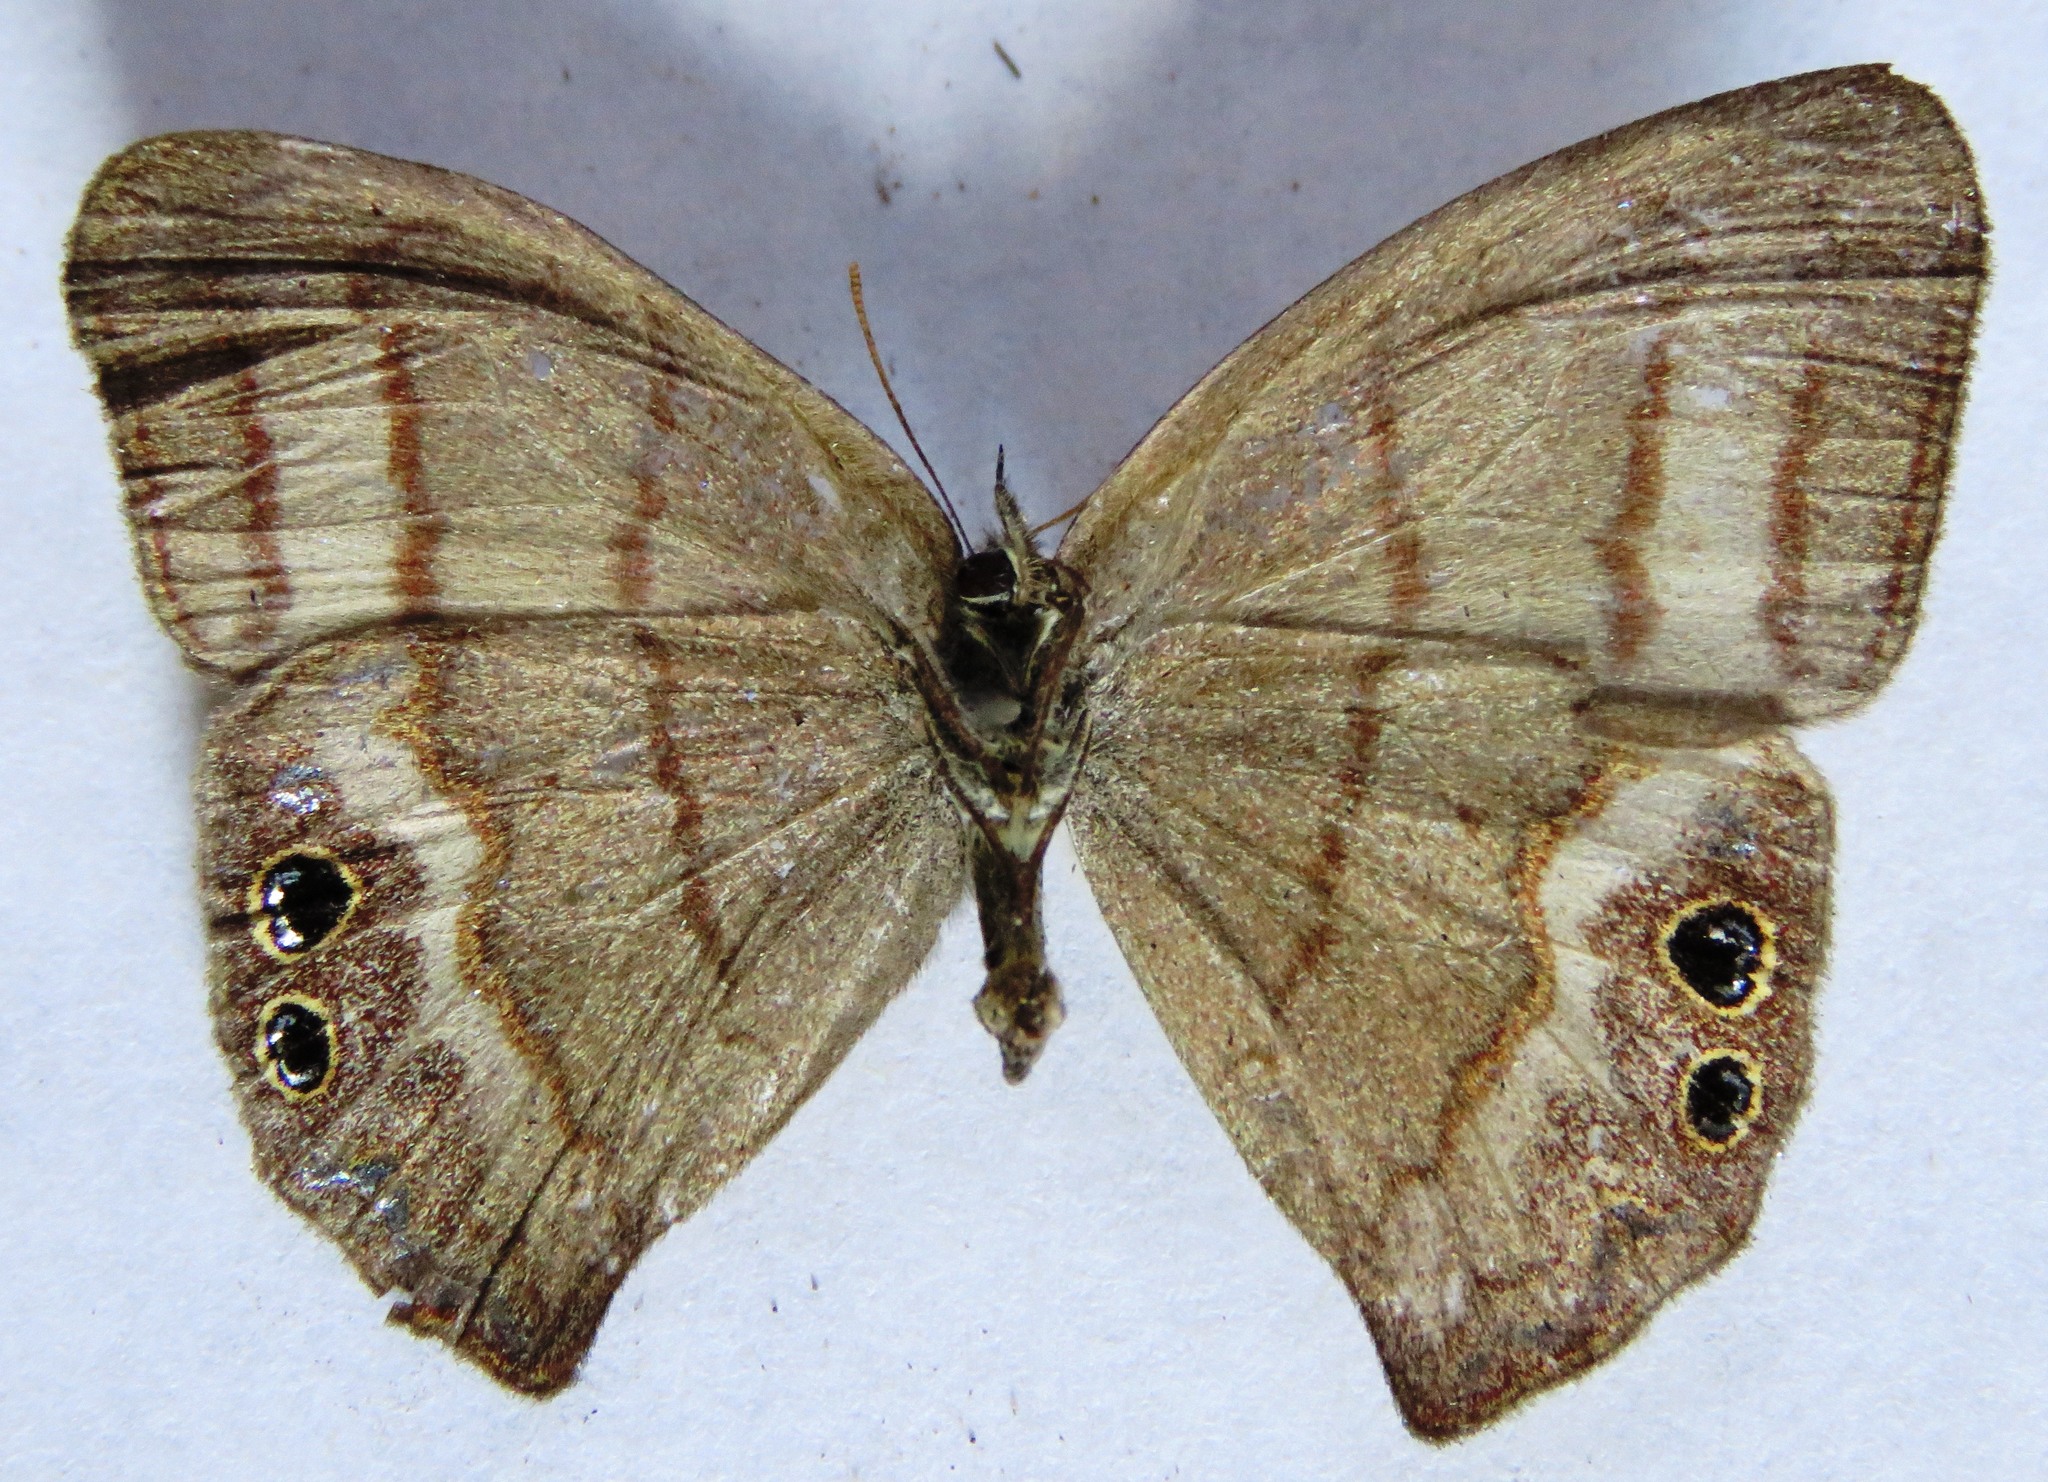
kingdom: Animalia
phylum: Arthropoda
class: Insecta
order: Lepidoptera
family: Nymphalidae
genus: Euptychia
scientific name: Euptychia
